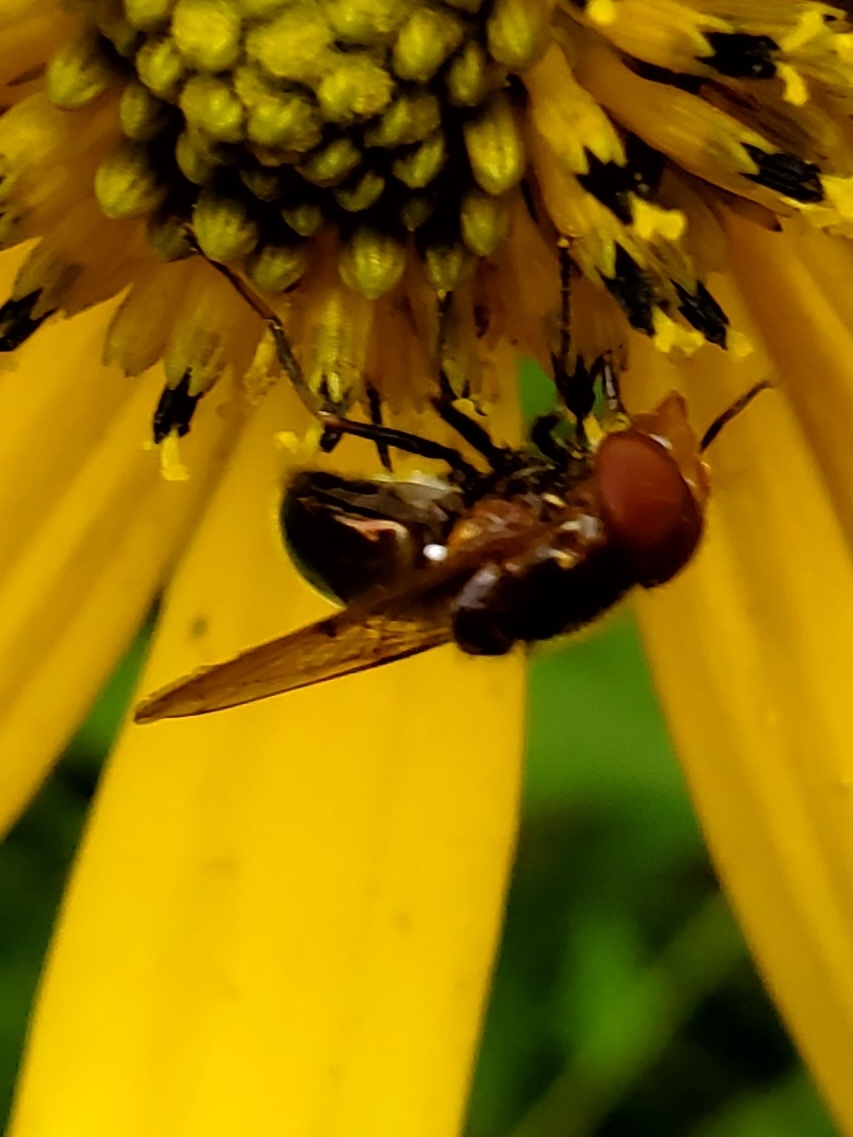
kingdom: Animalia
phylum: Arthropoda
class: Insecta
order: Diptera
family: Syrphidae
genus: Copestylum
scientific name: Copestylum vesicularium
